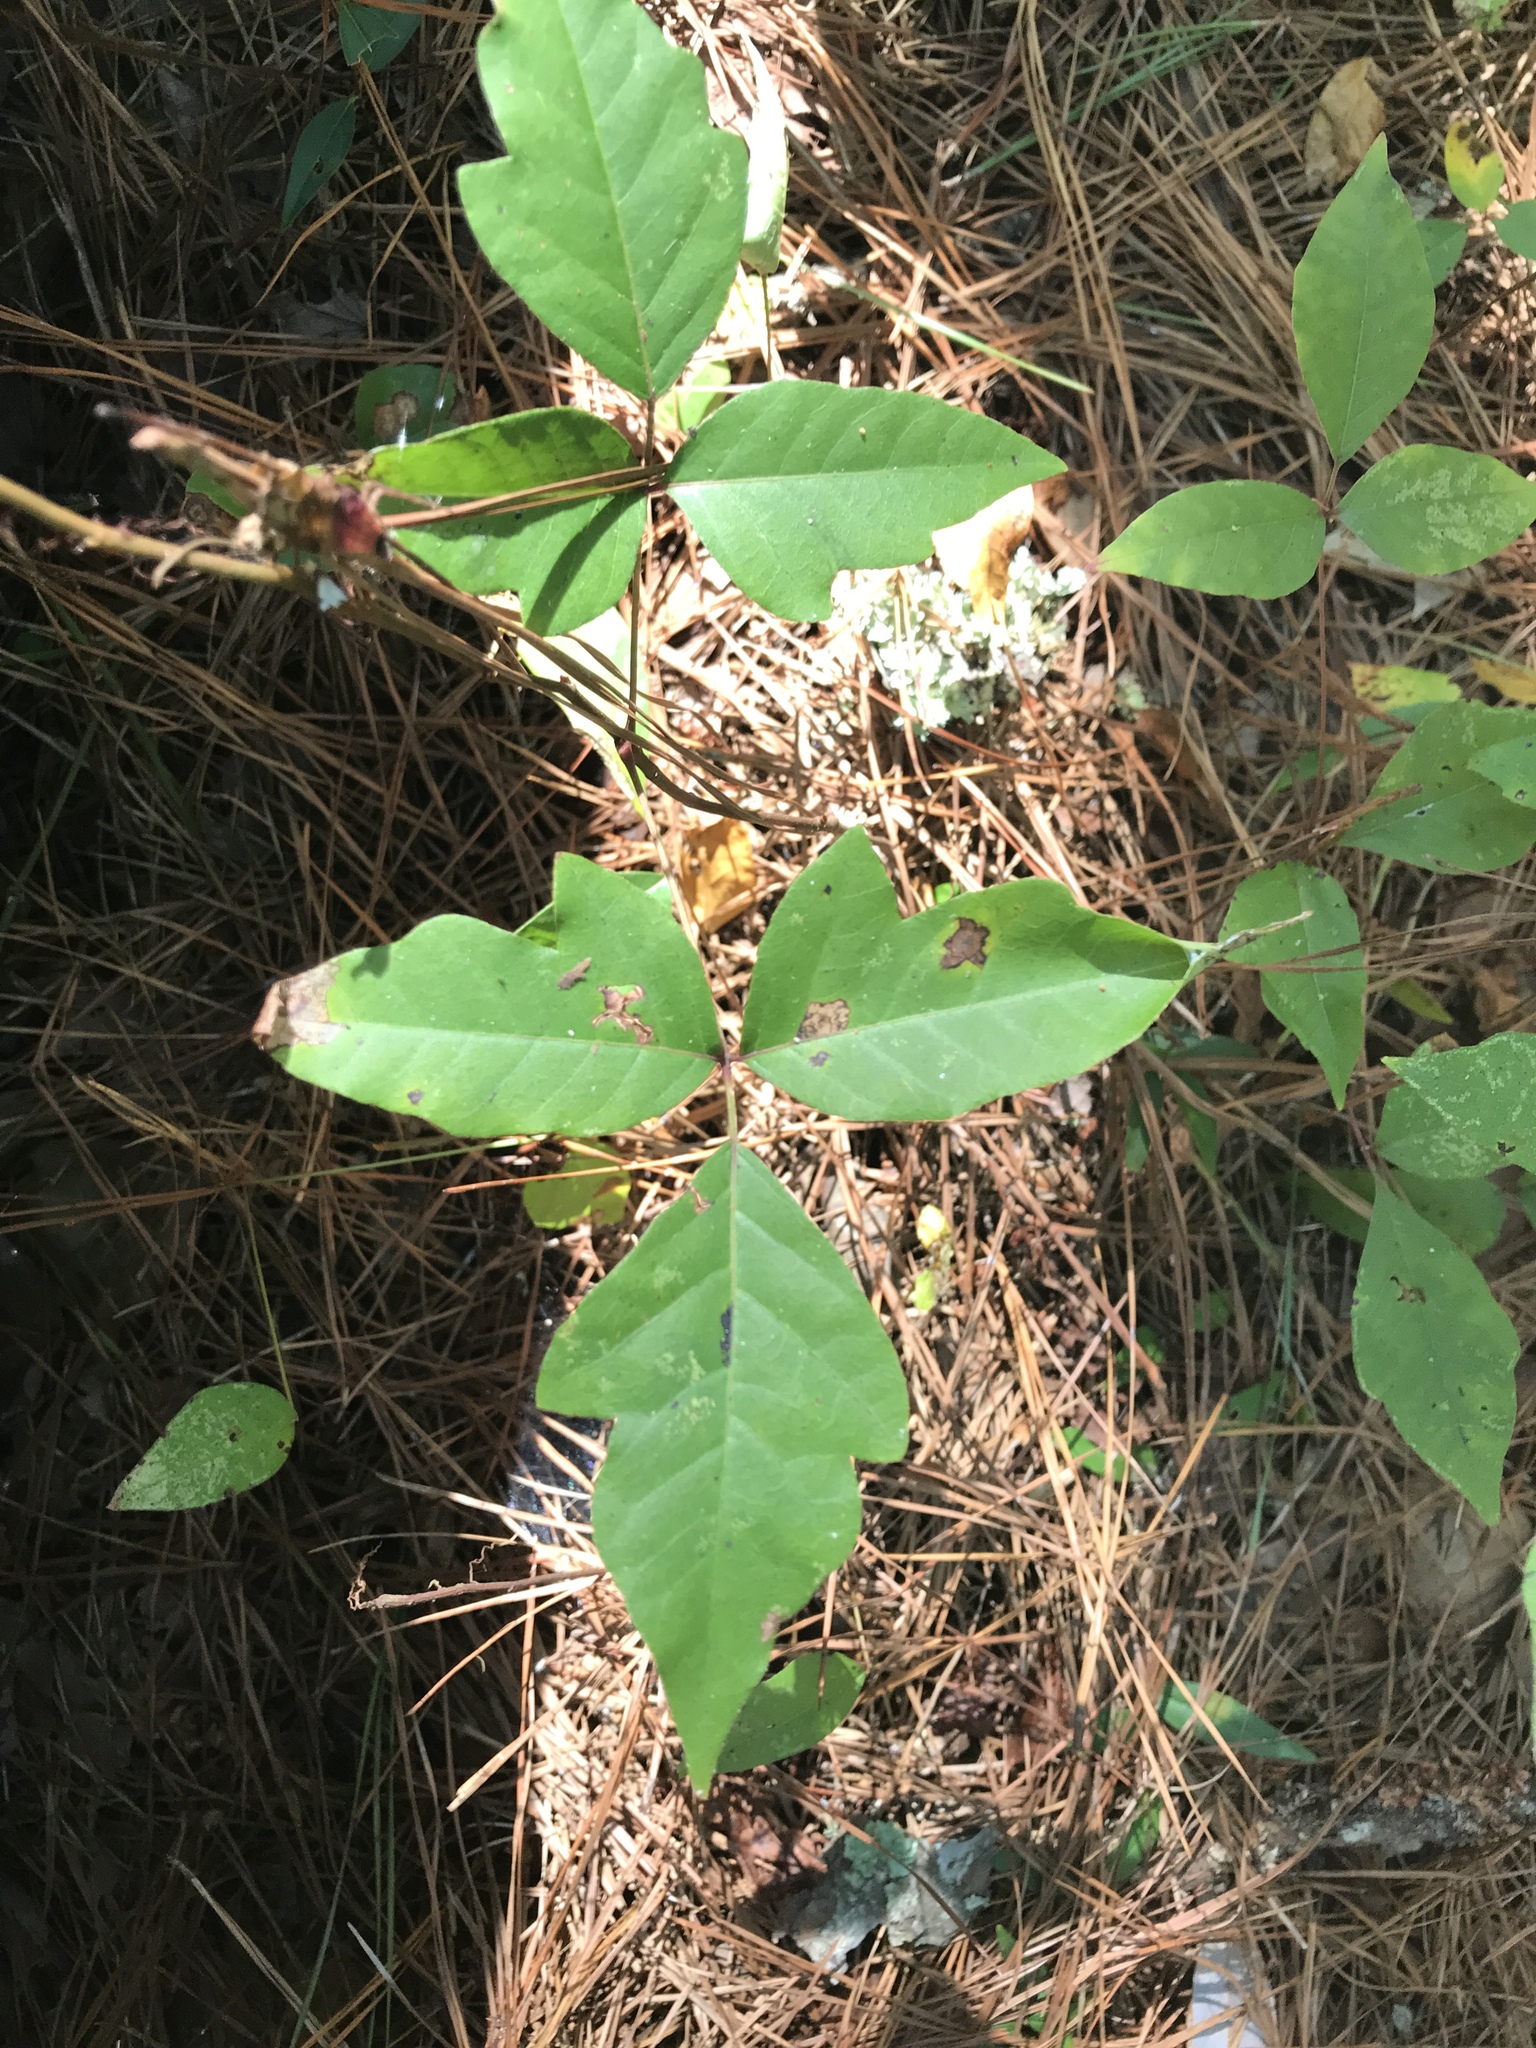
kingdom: Plantae
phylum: Tracheophyta
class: Magnoliopsida
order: Sapindales
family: Anacardiaceae
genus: Toxicodendron
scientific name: Toxicodendron radicans
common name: Poison ivy
